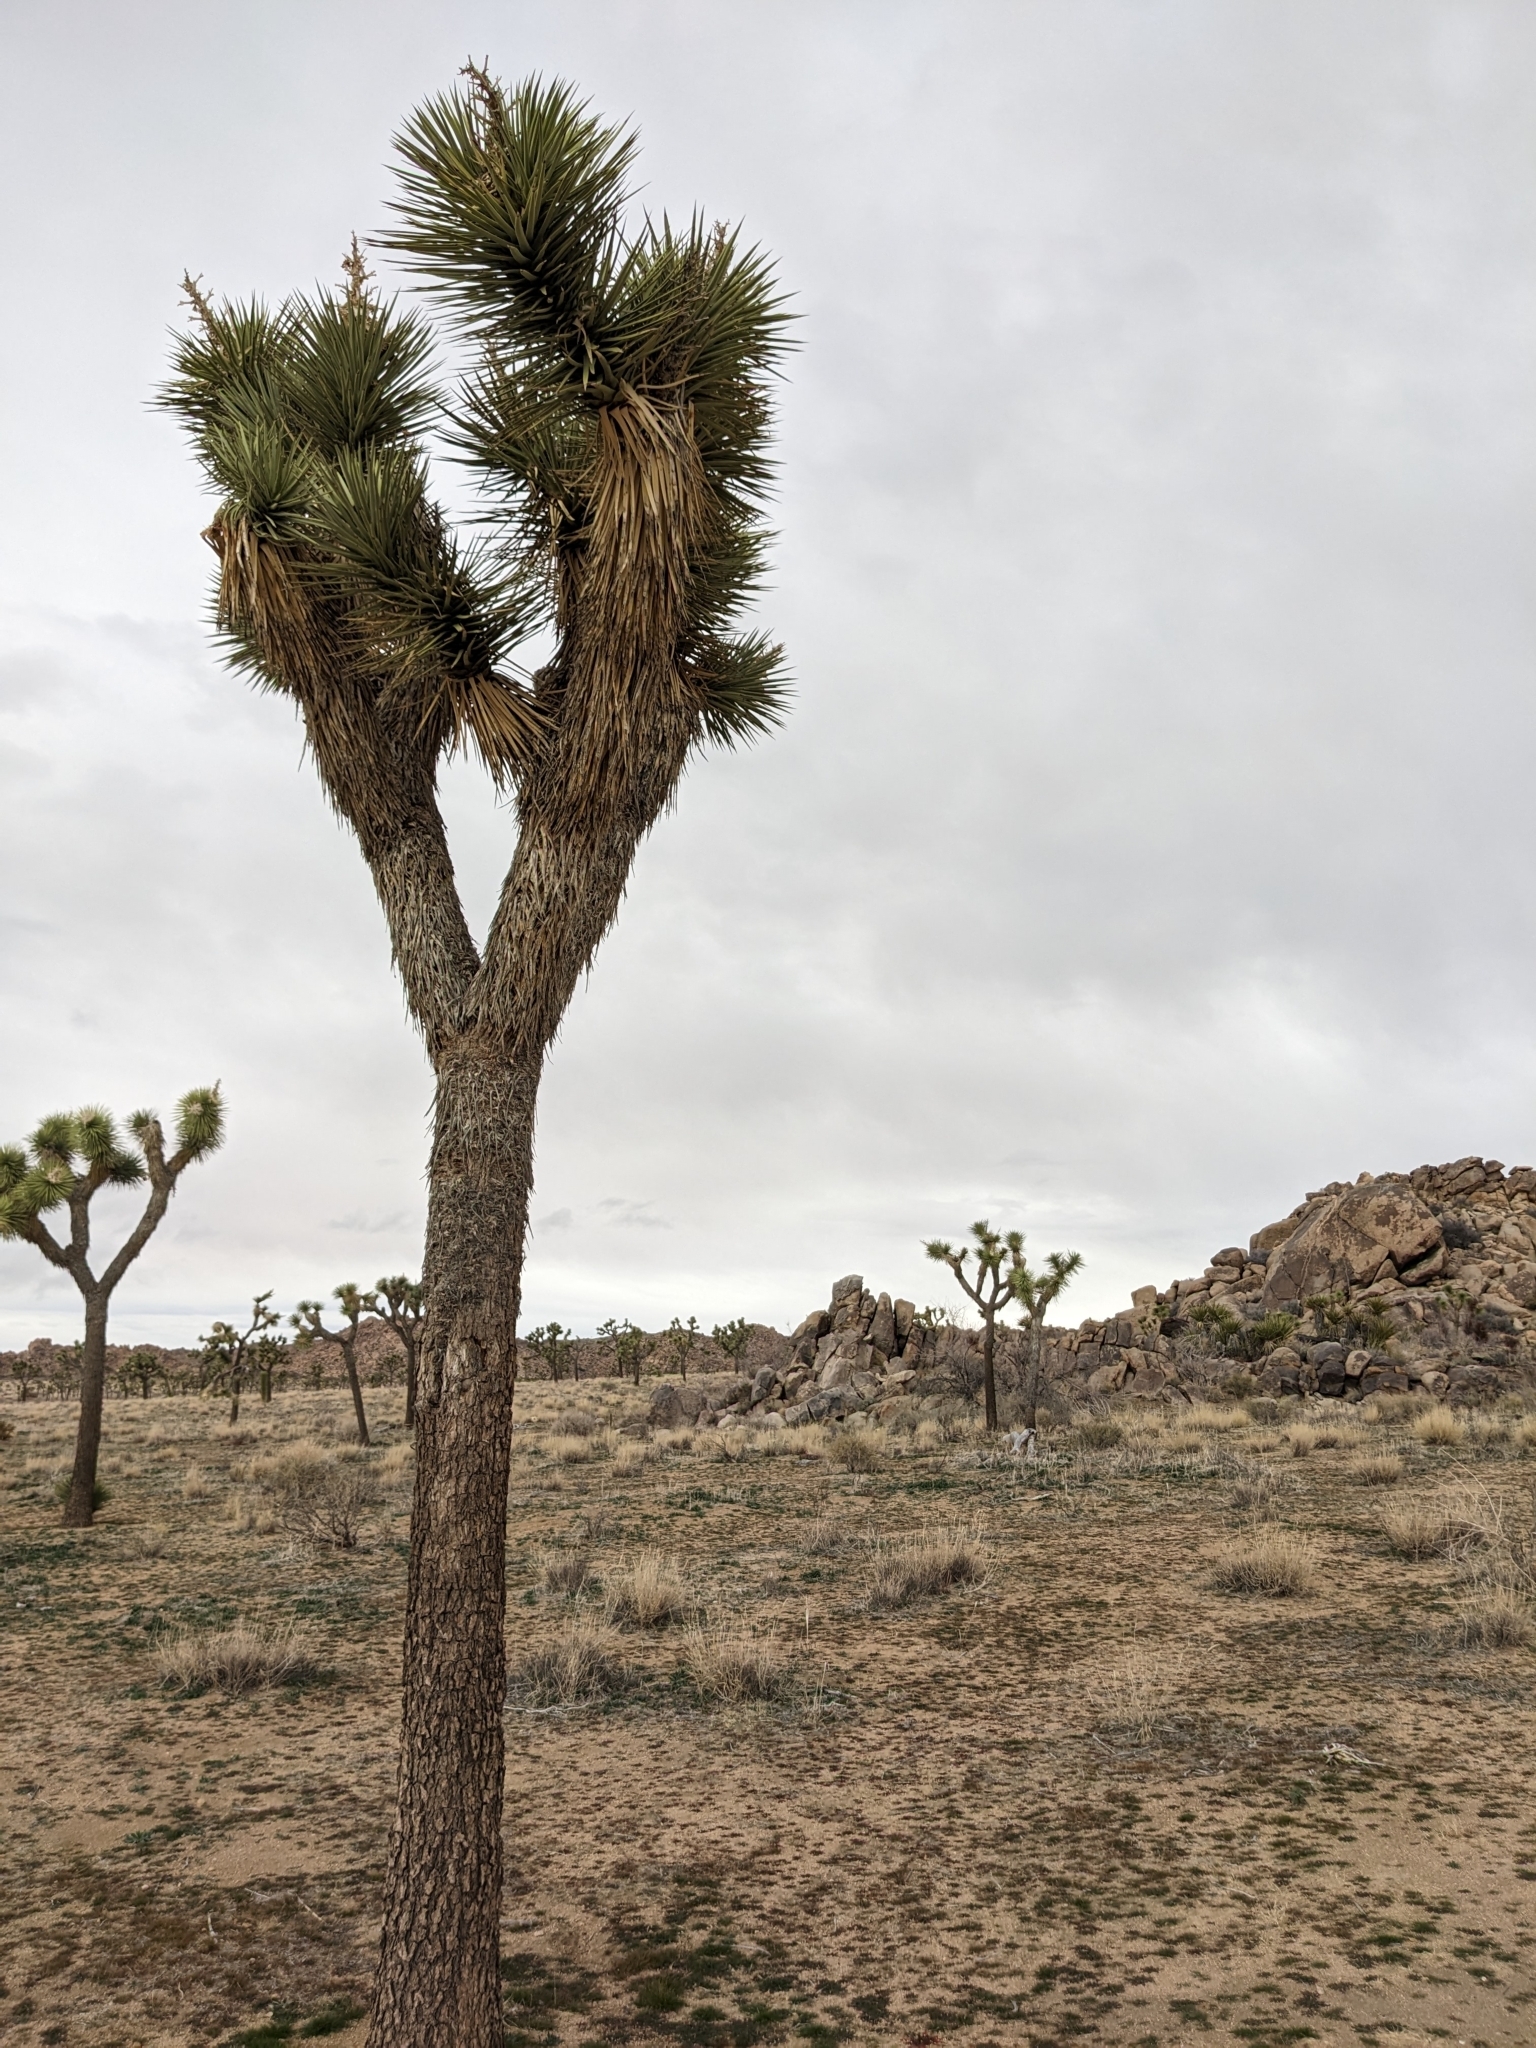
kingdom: Plantae
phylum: Tracheophyta
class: Liliopsida
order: Asparagales
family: Asparagaceae
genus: Yucca
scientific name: Yucca brevifolia
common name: Joshua tree
